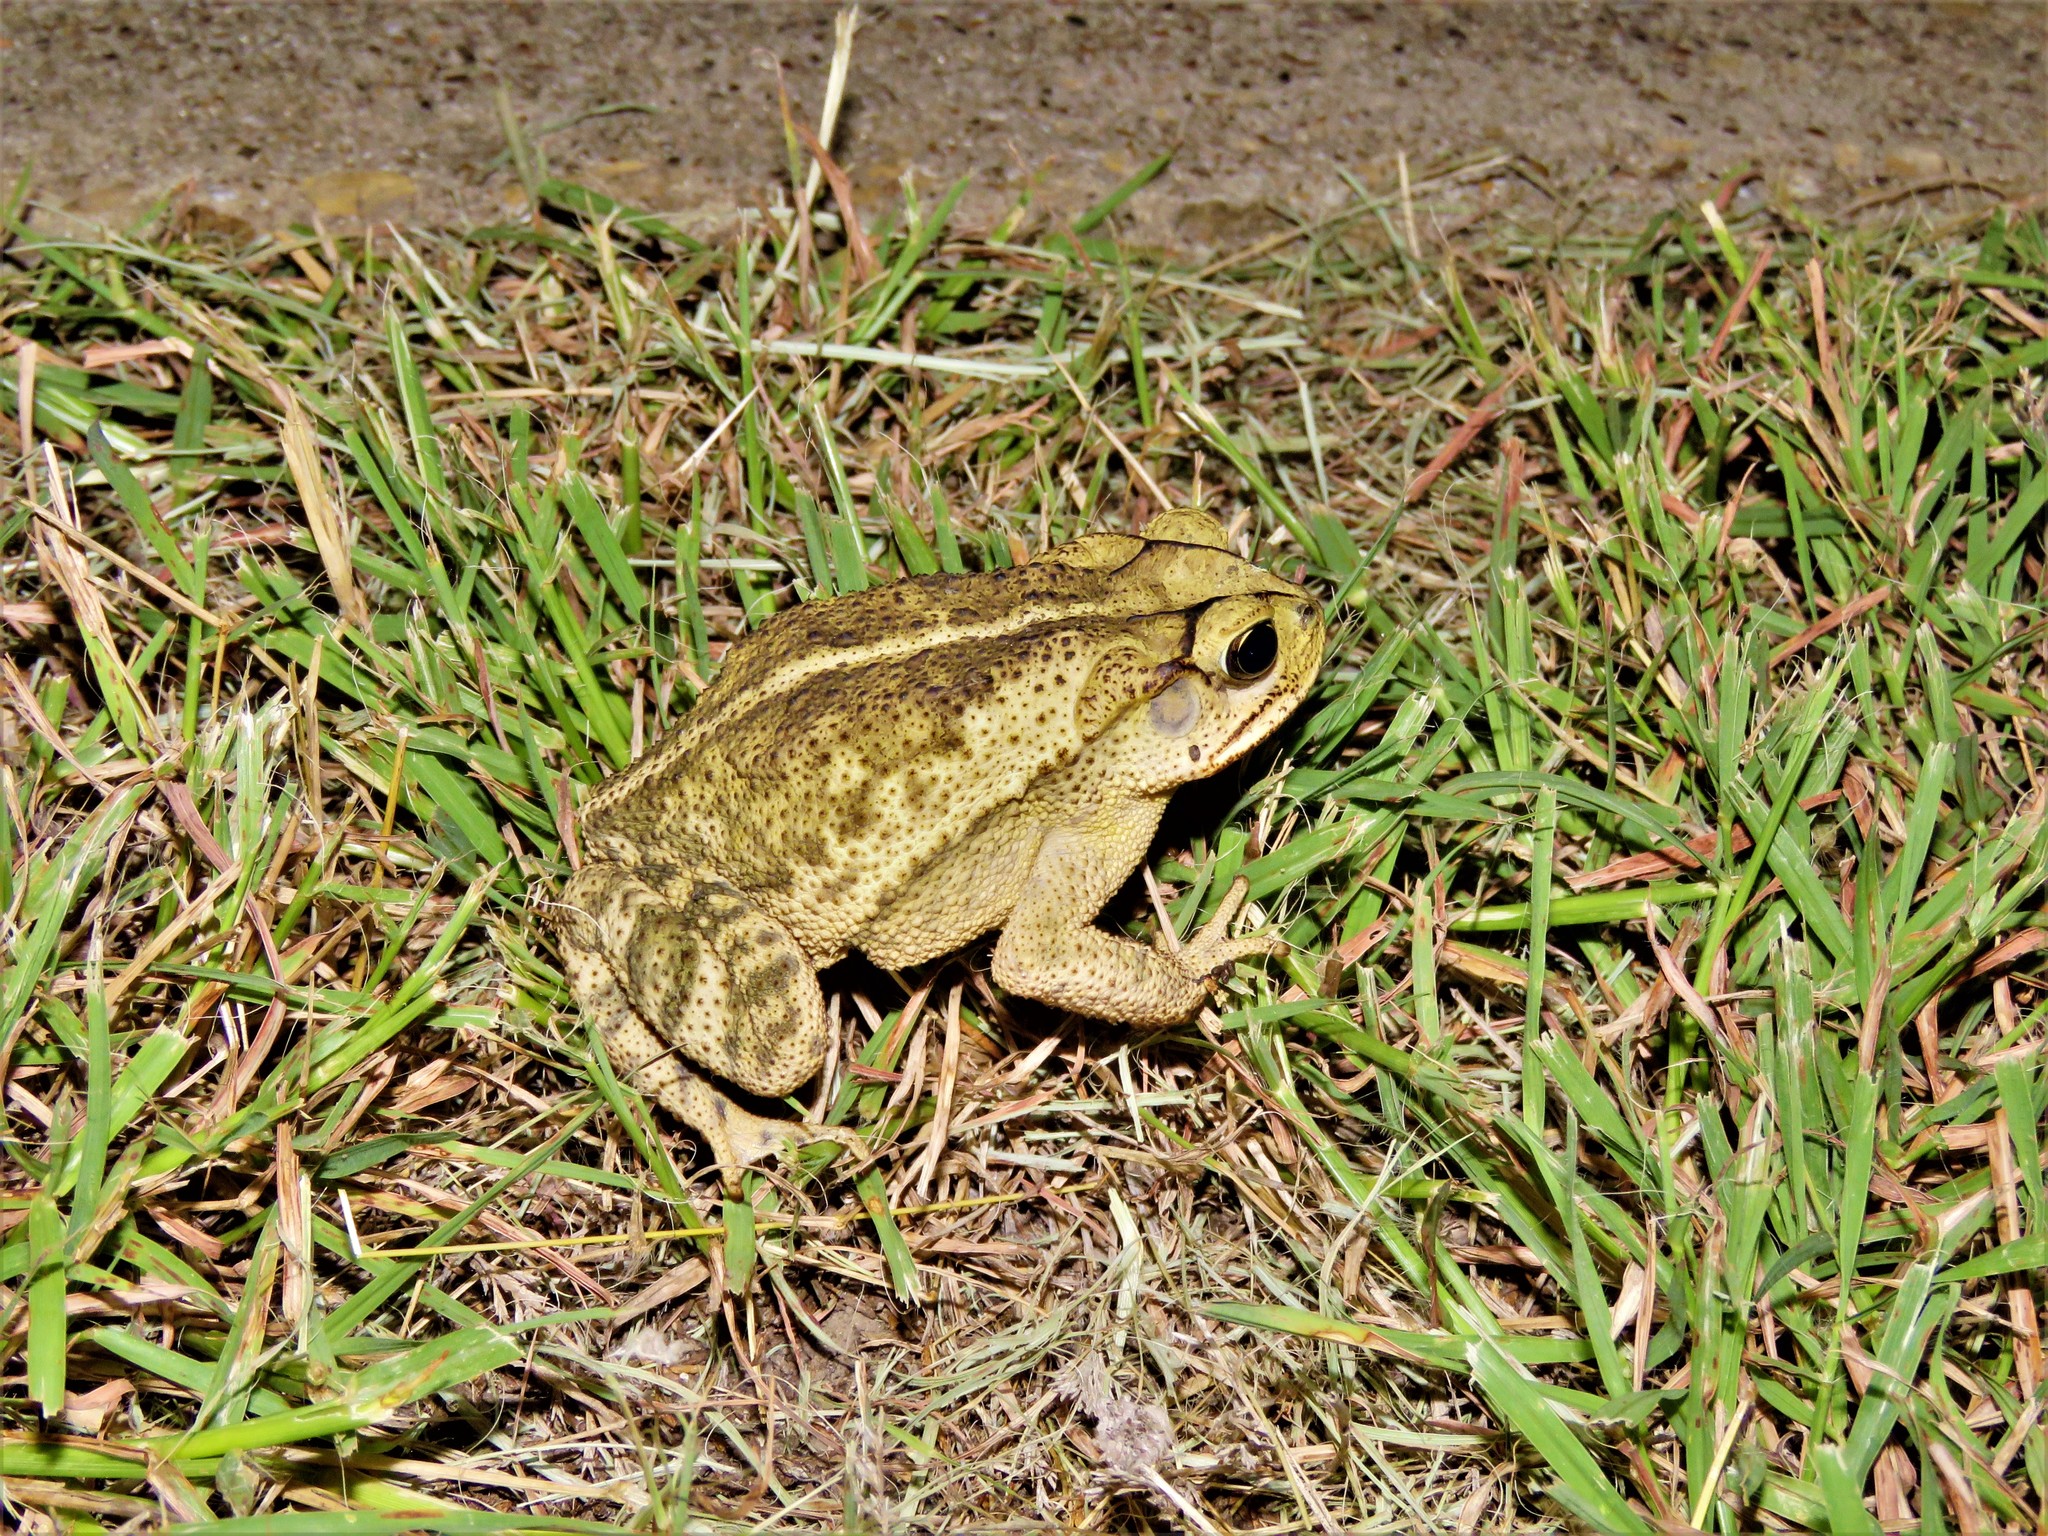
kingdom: Animalia
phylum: Chordata
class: Amphibia
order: Anura
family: Bufonidae
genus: Incilius
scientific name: Incilius nebulifer
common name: Gulf coast toad
